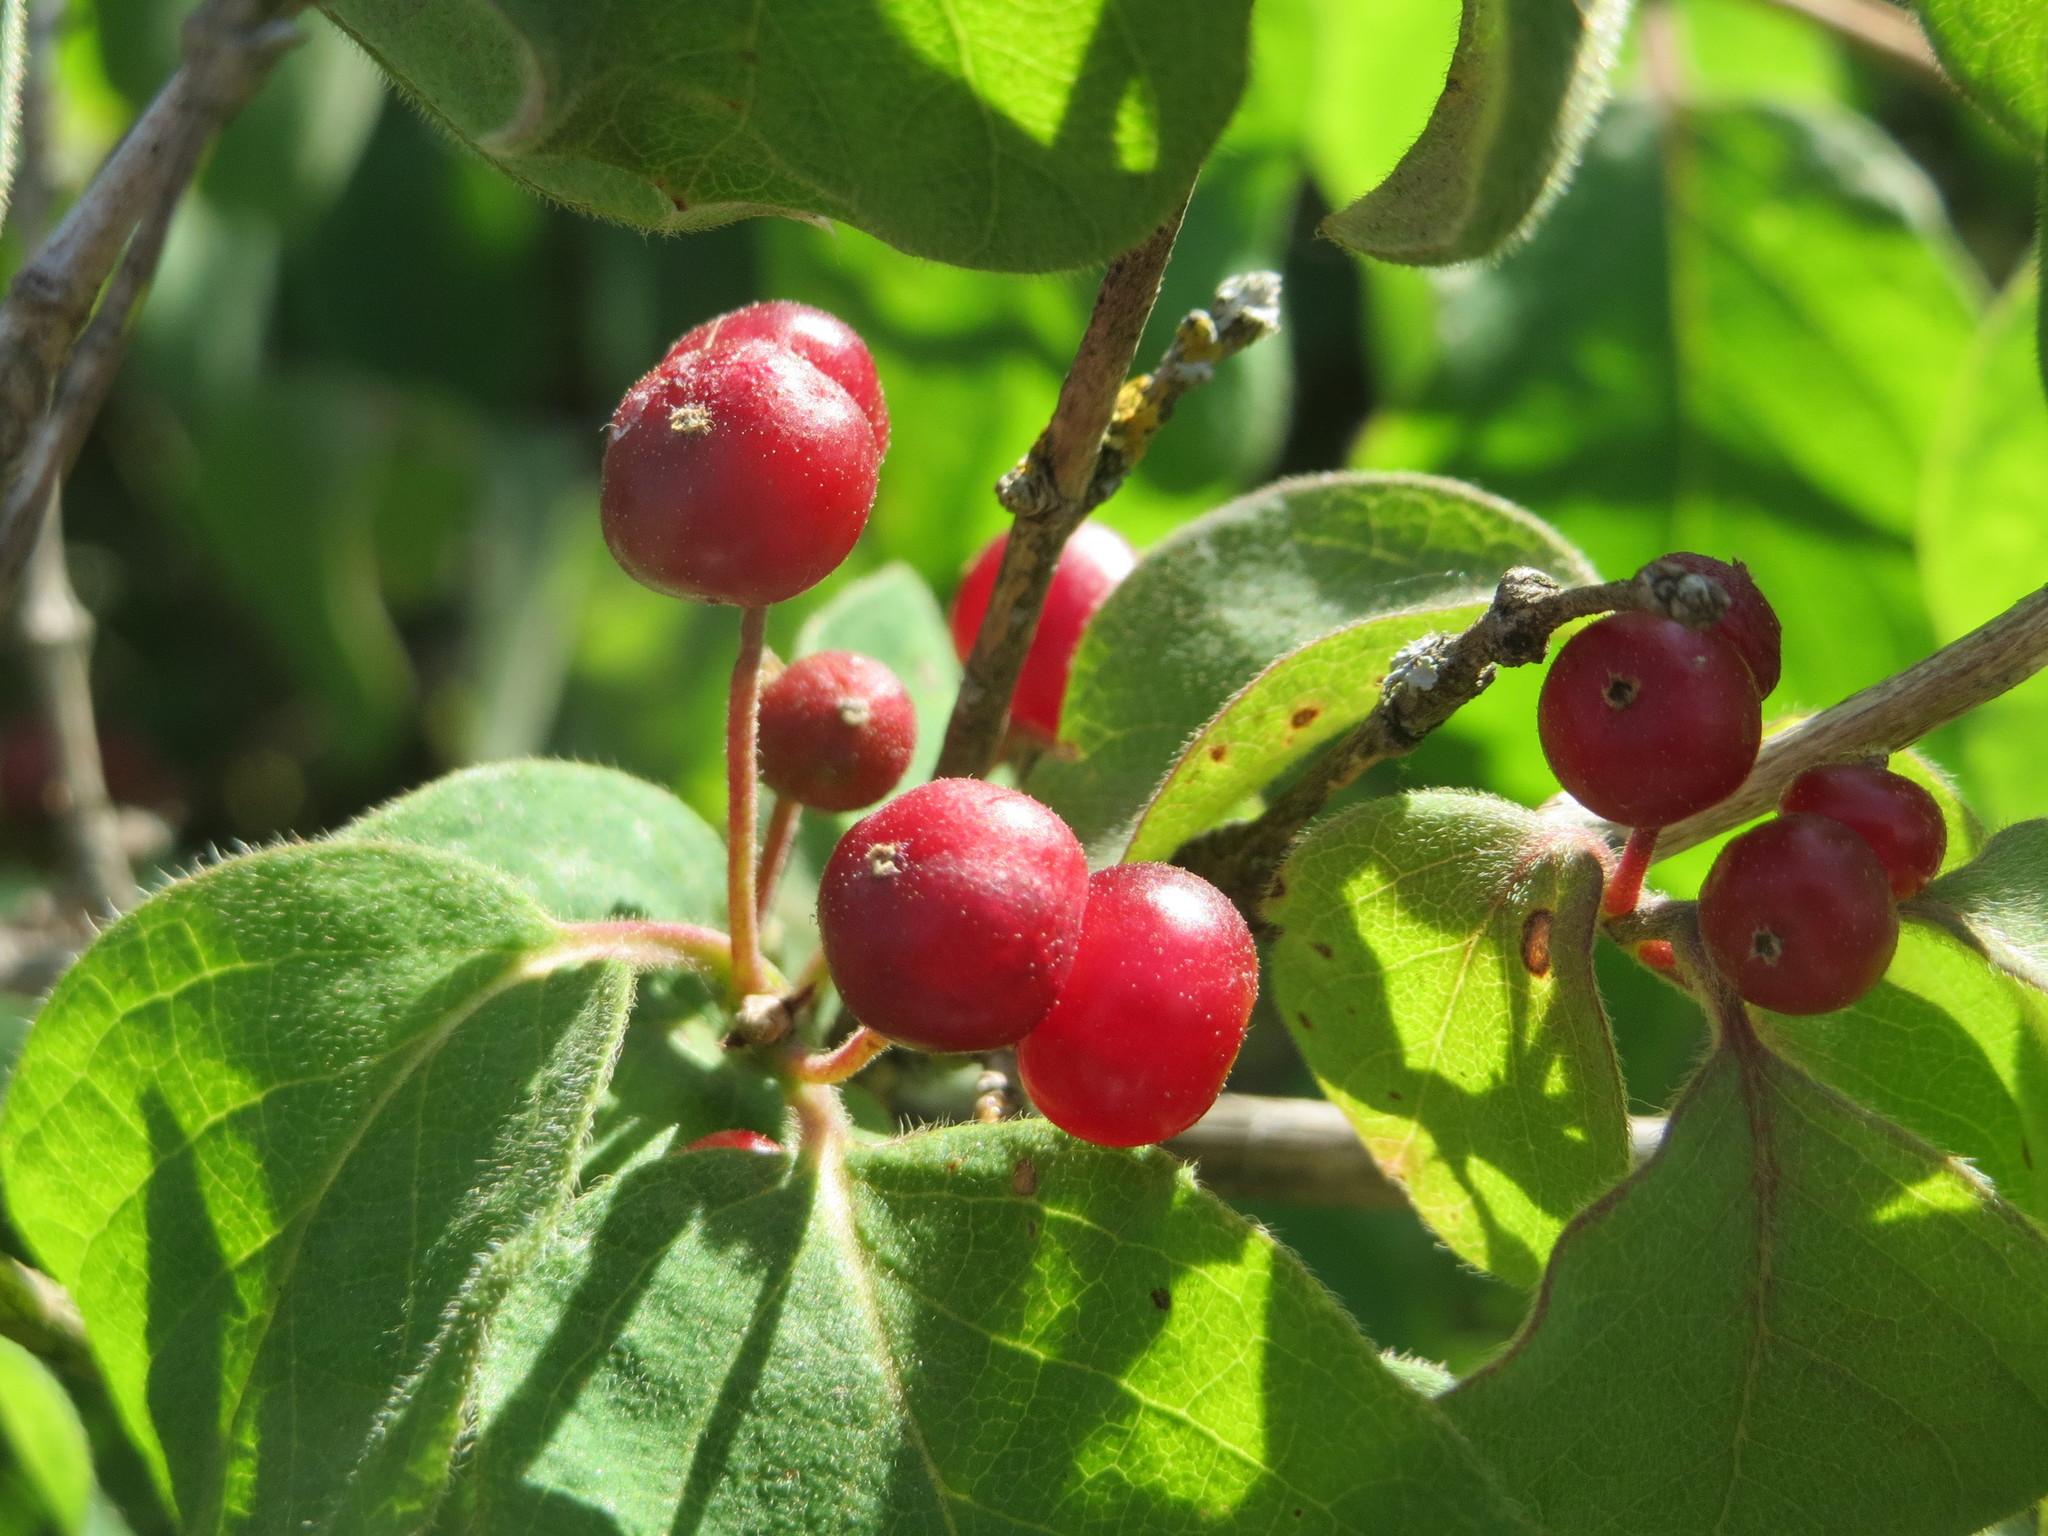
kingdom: Plantae
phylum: Tracheophyta
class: Magnoliopsida
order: Dipsacales
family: Caprifoliaceae
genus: Lonicera
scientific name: Lonicera xylosteum
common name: Fly honeysuckle
